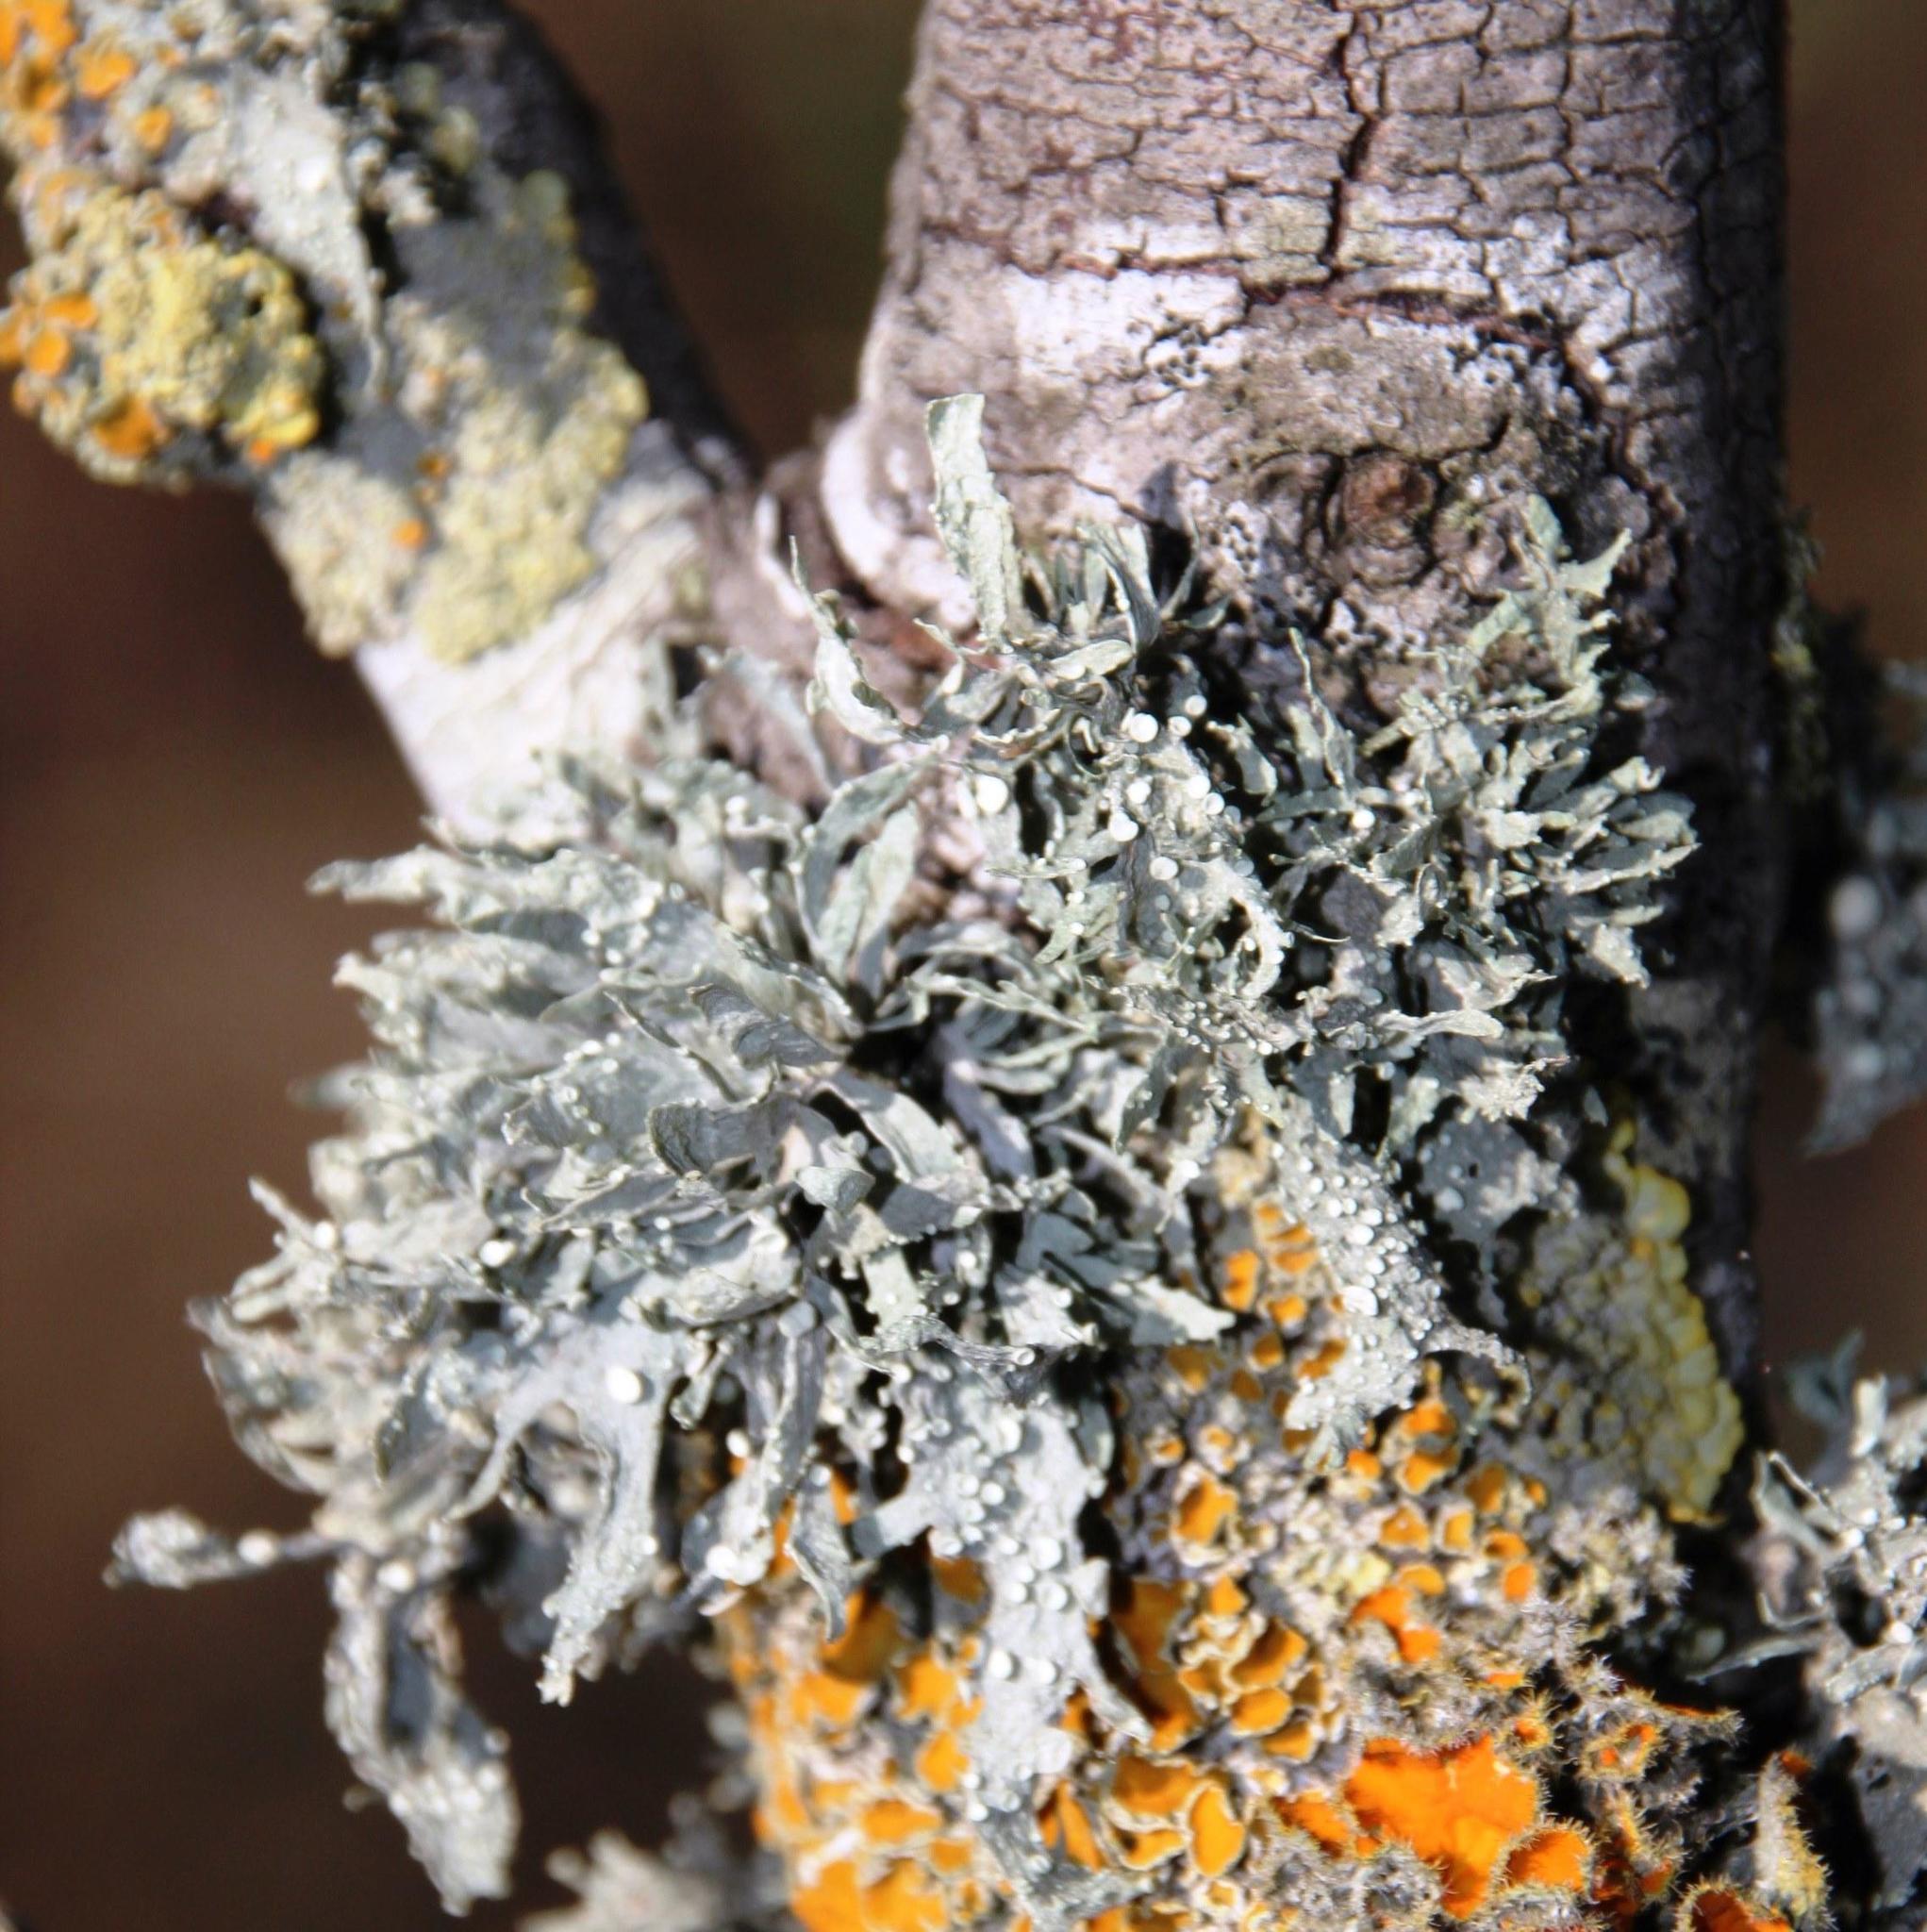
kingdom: Fungi
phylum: Ascomycota
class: Lecanoromycetes
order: Lecanorales
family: Ramalinaceae
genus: Ramalina
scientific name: Ramalina celastri
